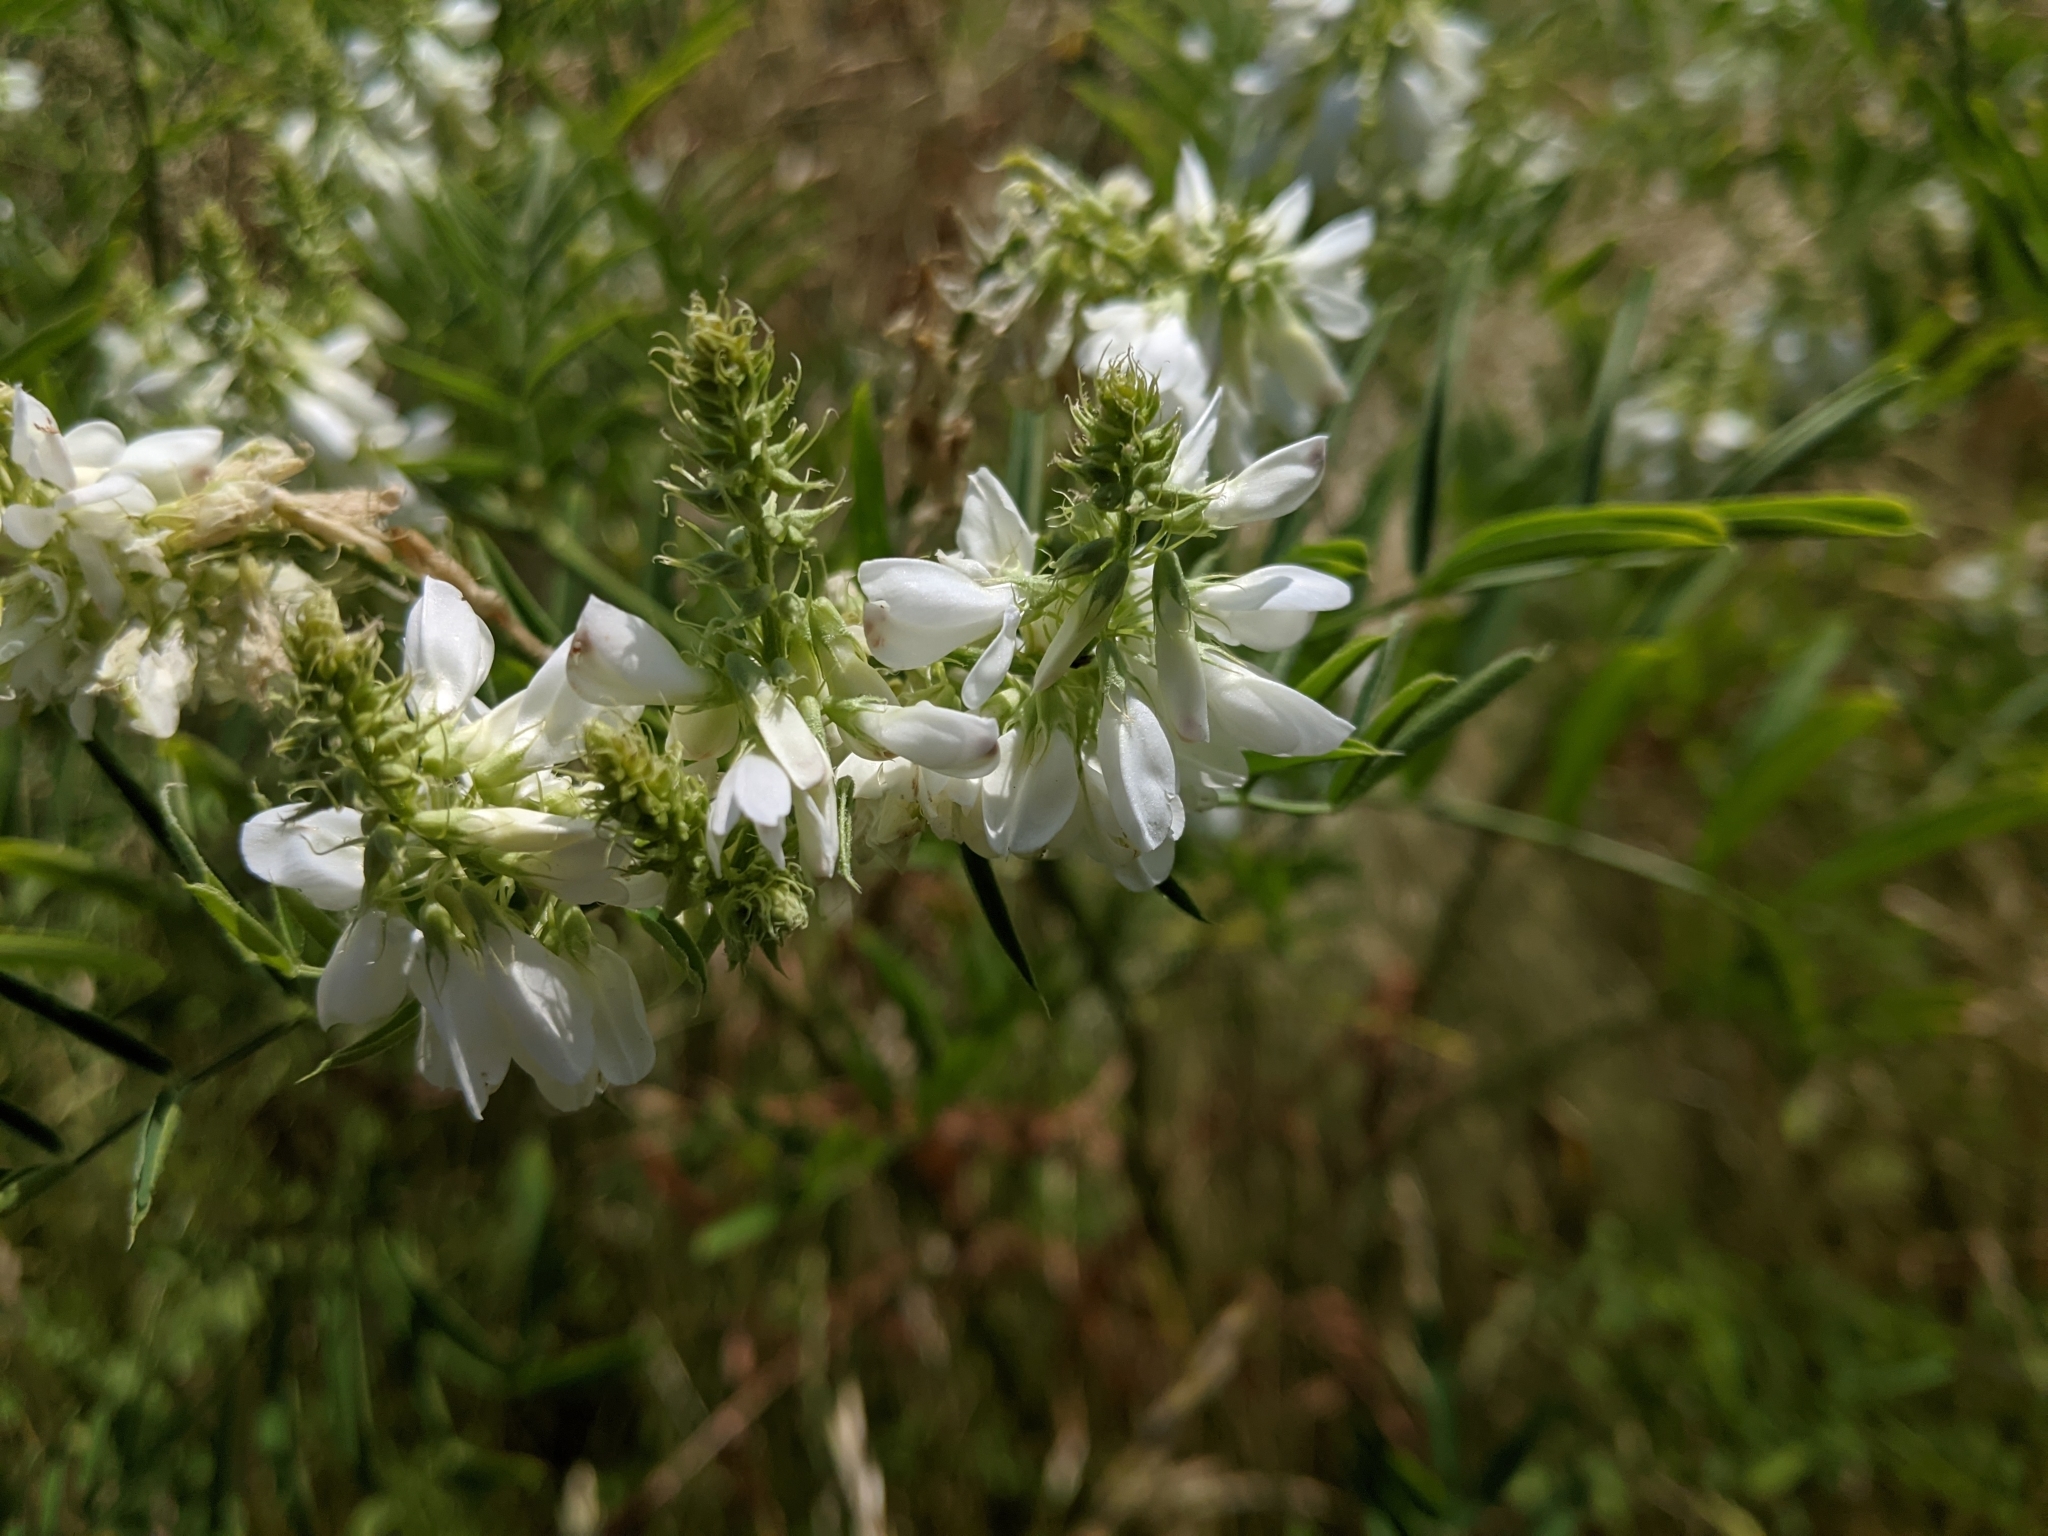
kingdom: Plantae
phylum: Tracheophyta
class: Magnoliopsida
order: Fabales
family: Fabaceae
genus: Galega
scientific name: Galega officinalis
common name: Goat's-rue
